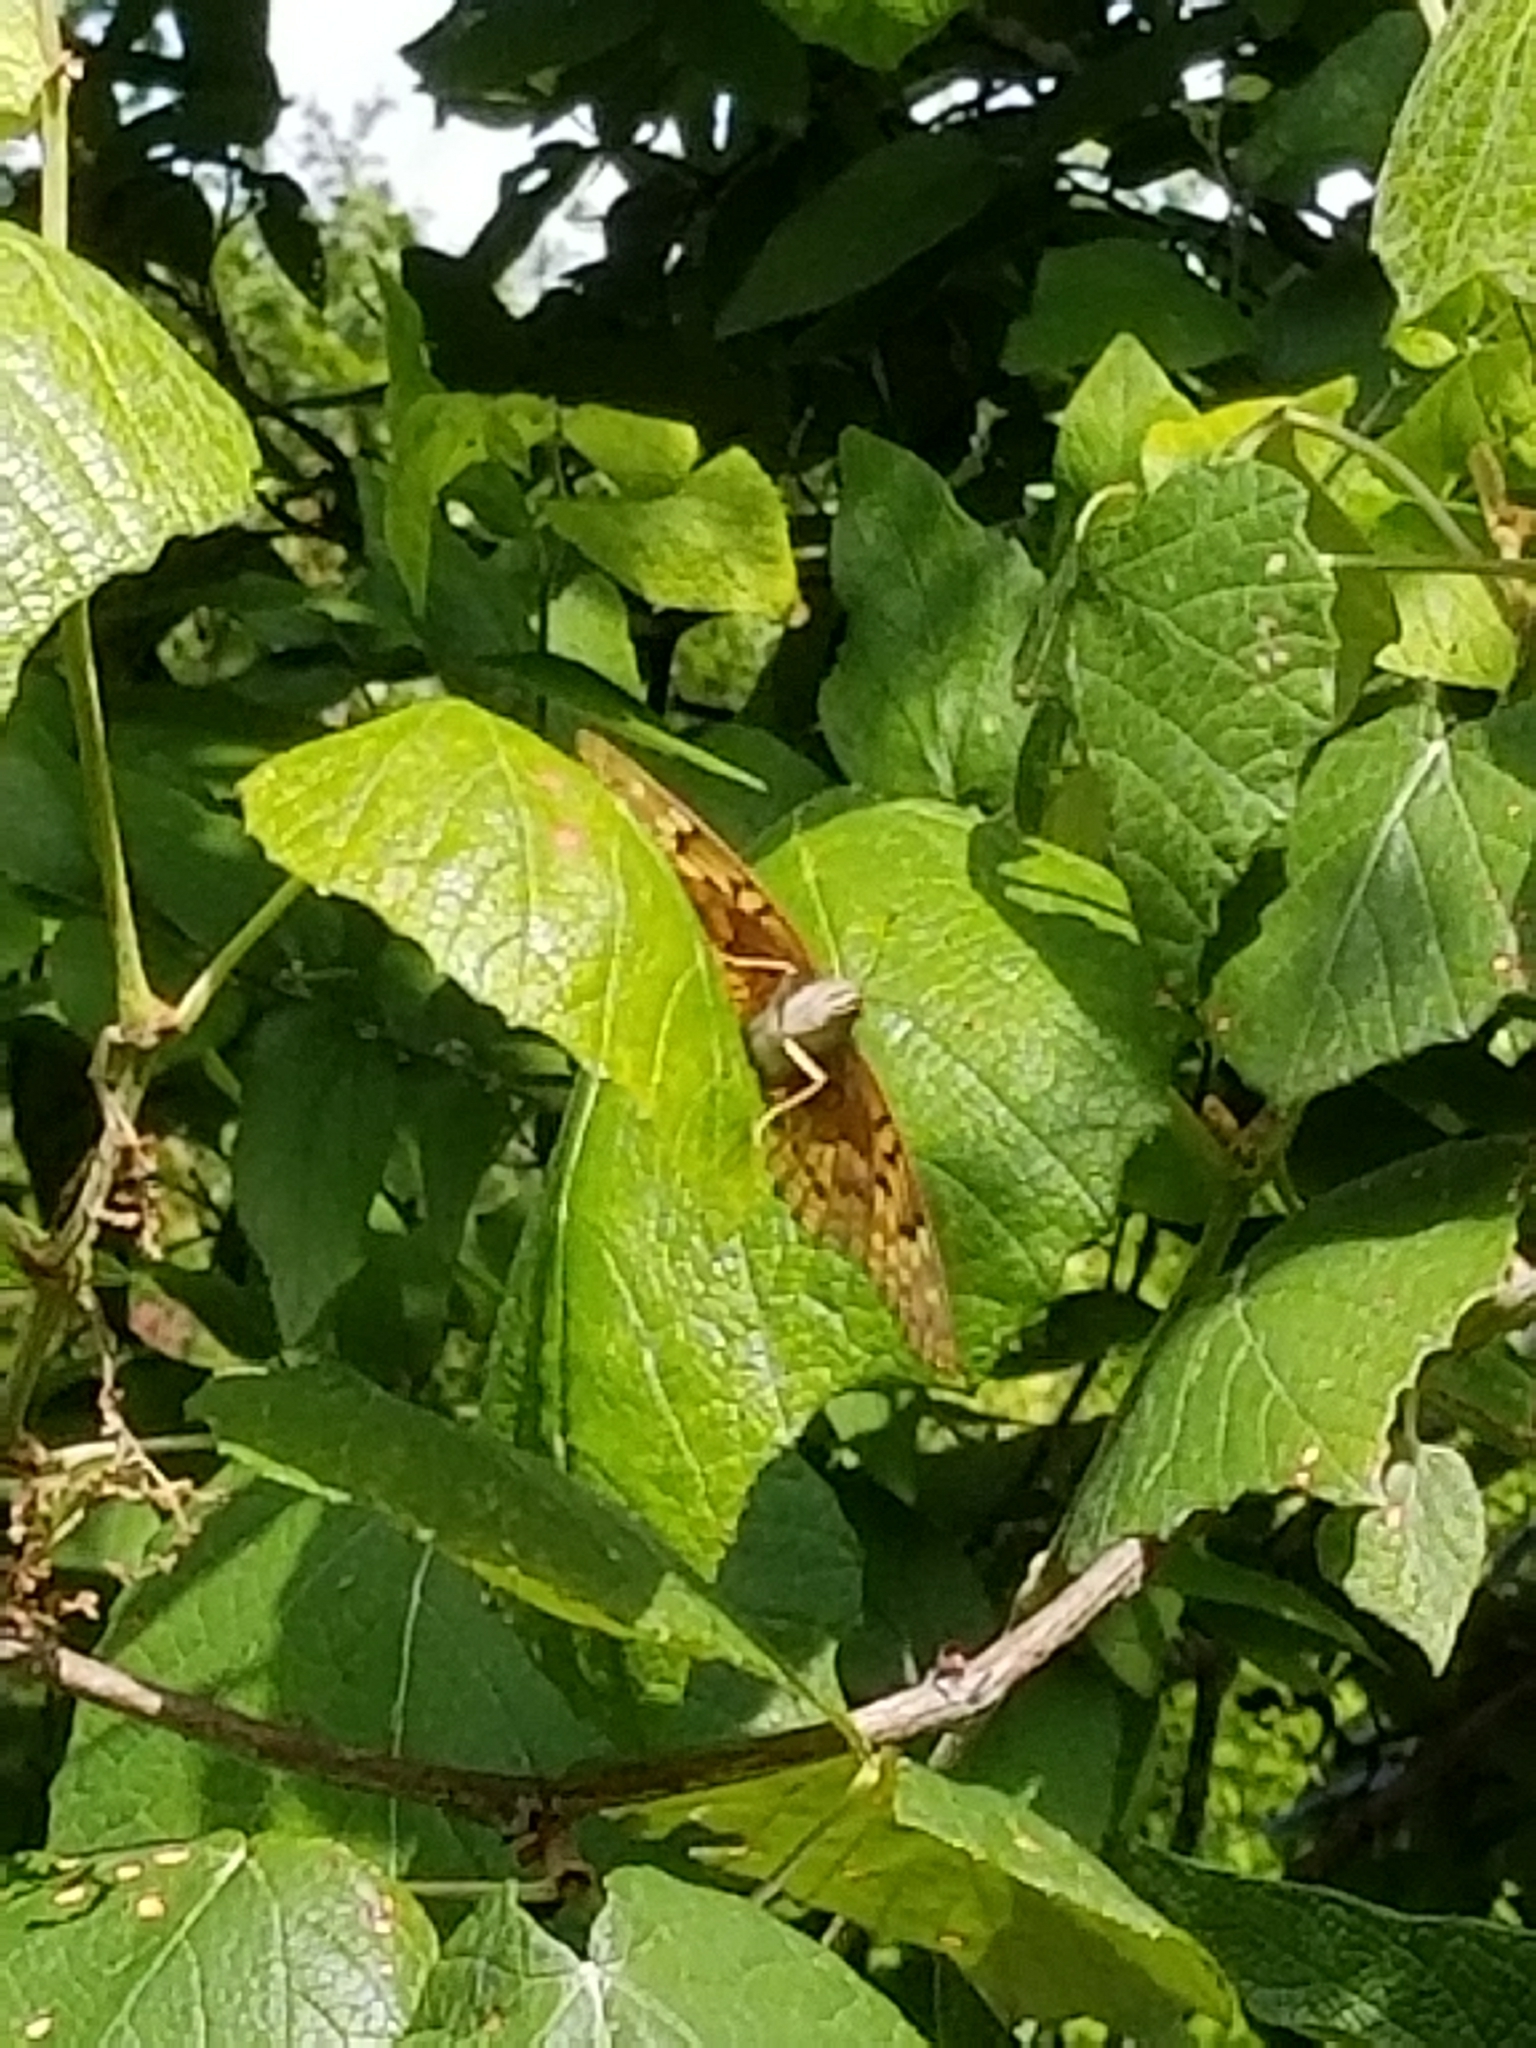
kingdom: Animalia
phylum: Arthropoda
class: Insecta
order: Lepidoptera
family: Nymphalidae
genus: Asterocampa
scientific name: Asterocampa clyton
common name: Tawny emperor
